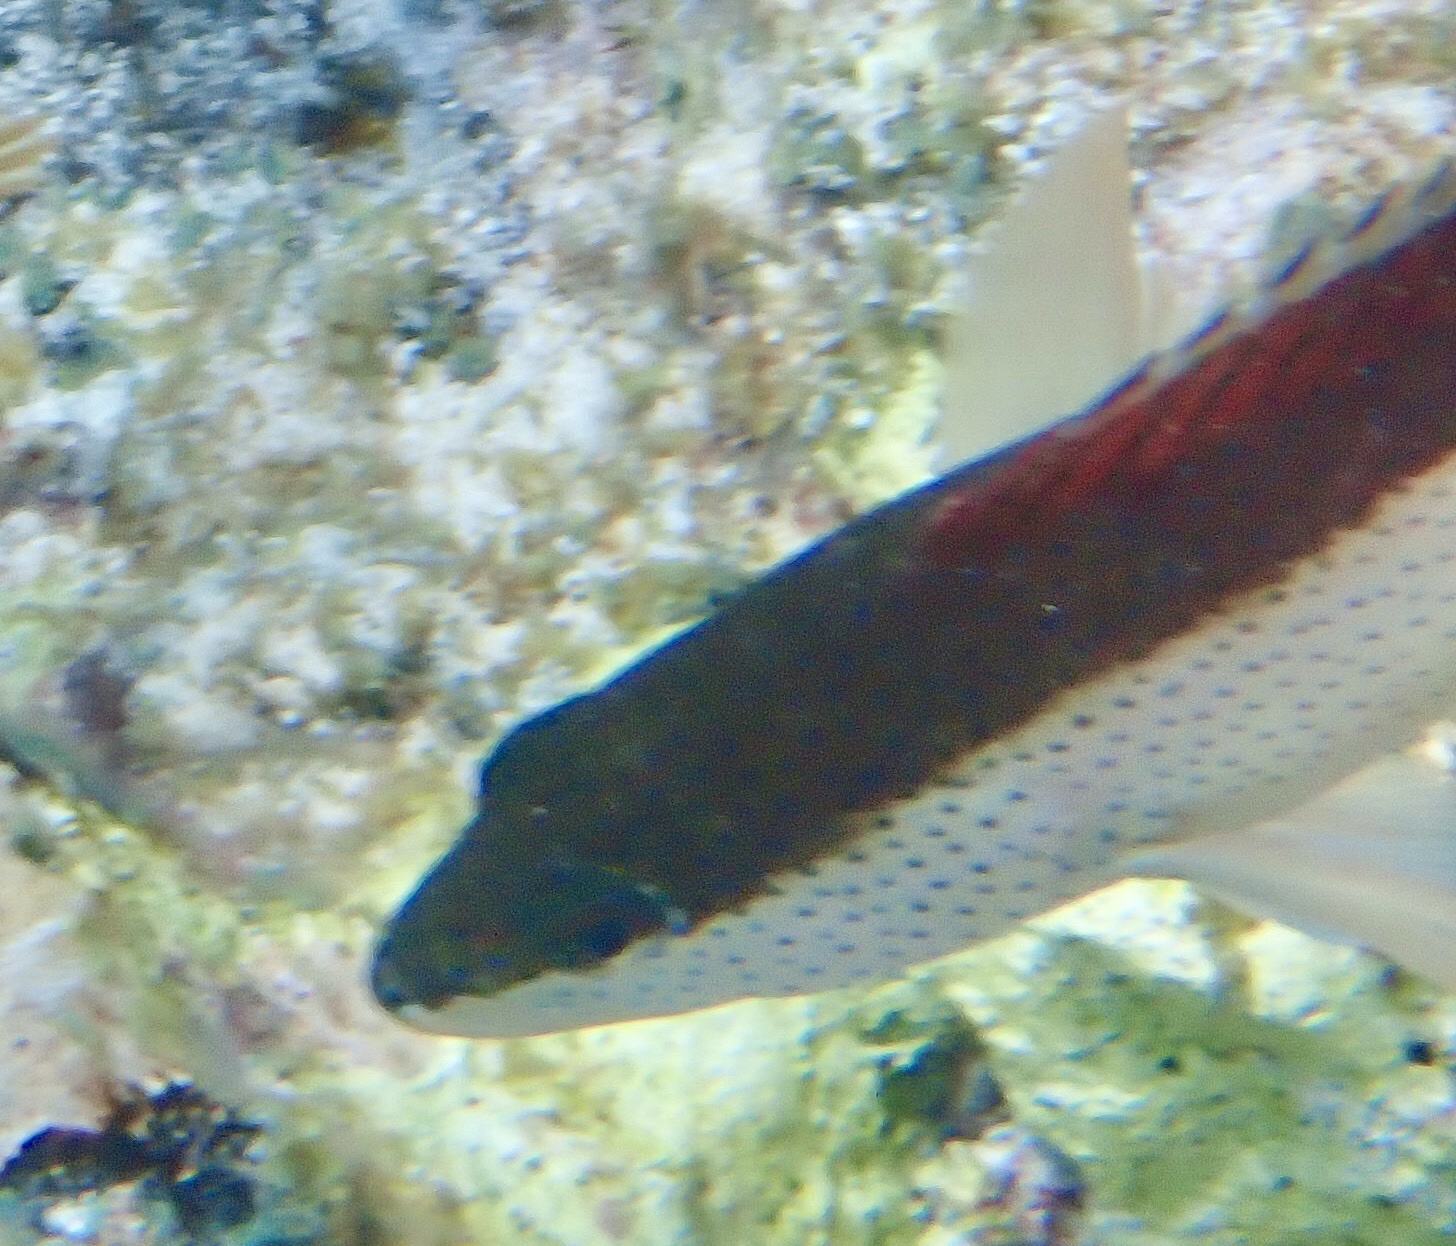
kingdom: Animalia
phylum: Chordata
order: Perciformes
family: Serranidae
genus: Cephalopholis
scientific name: Cephalopholis fulva
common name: Butterfish
